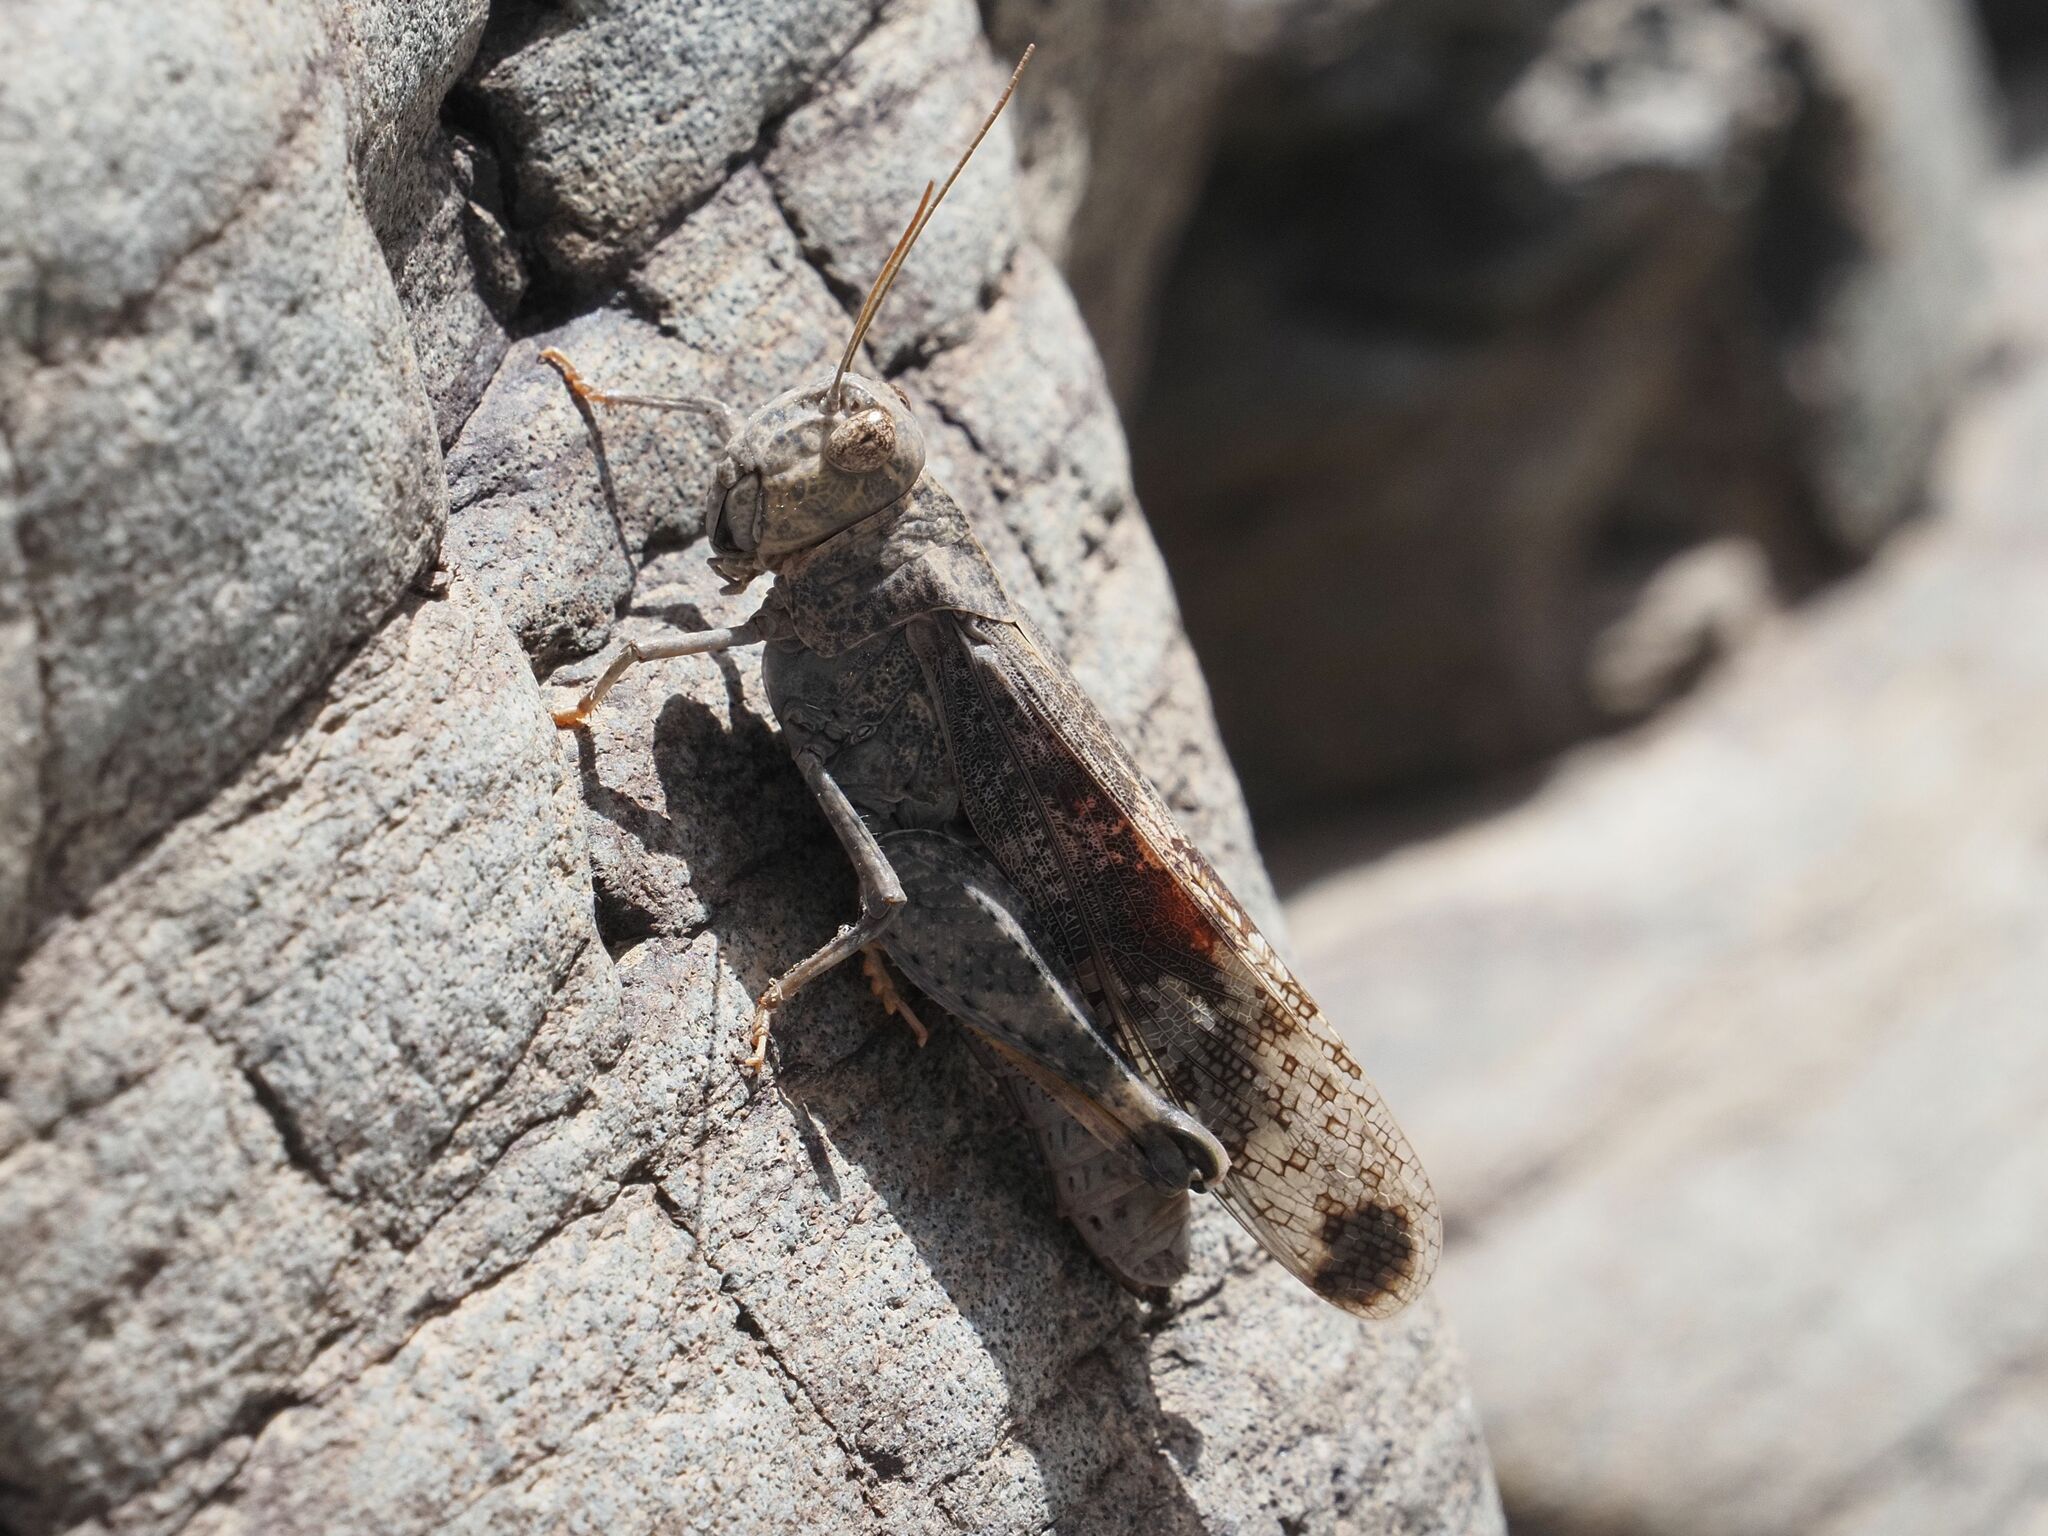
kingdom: Animalia
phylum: Arthropoda
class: Insecta
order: Orthoptera
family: Acrididae
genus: Scintharista
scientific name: Scintharista notabilis
